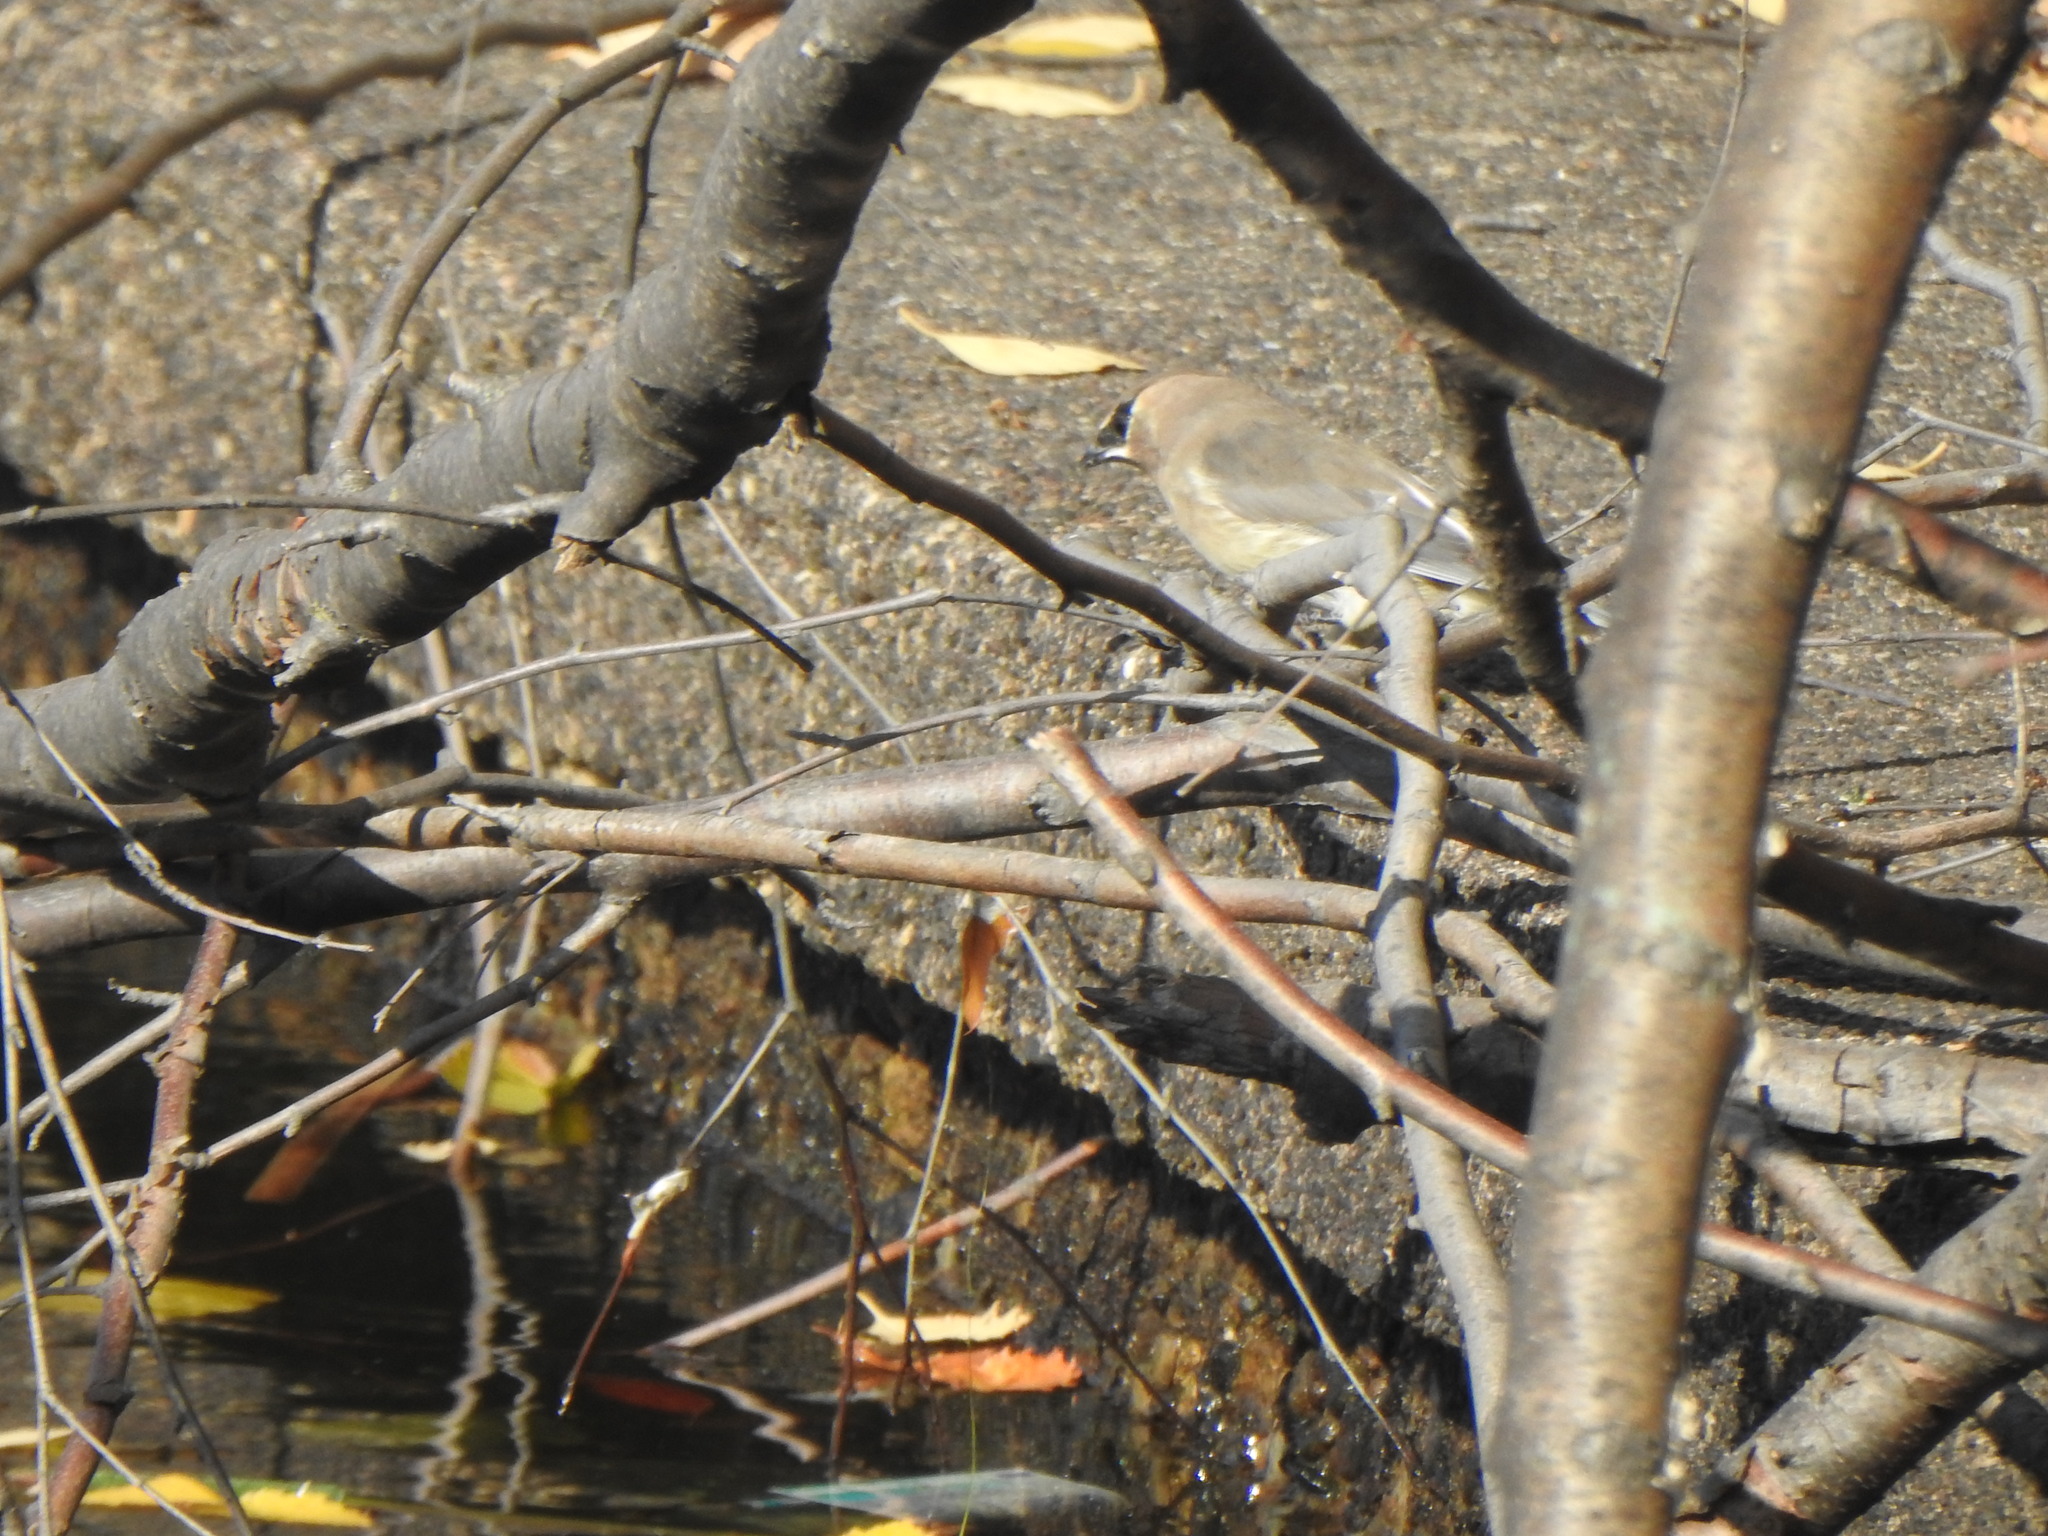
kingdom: Animalia
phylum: Chordata
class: Aves
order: Passeriformes
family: Bombycillidae
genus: Bombycilla
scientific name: Bombycilla cedrorum
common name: Cedar waxwing
